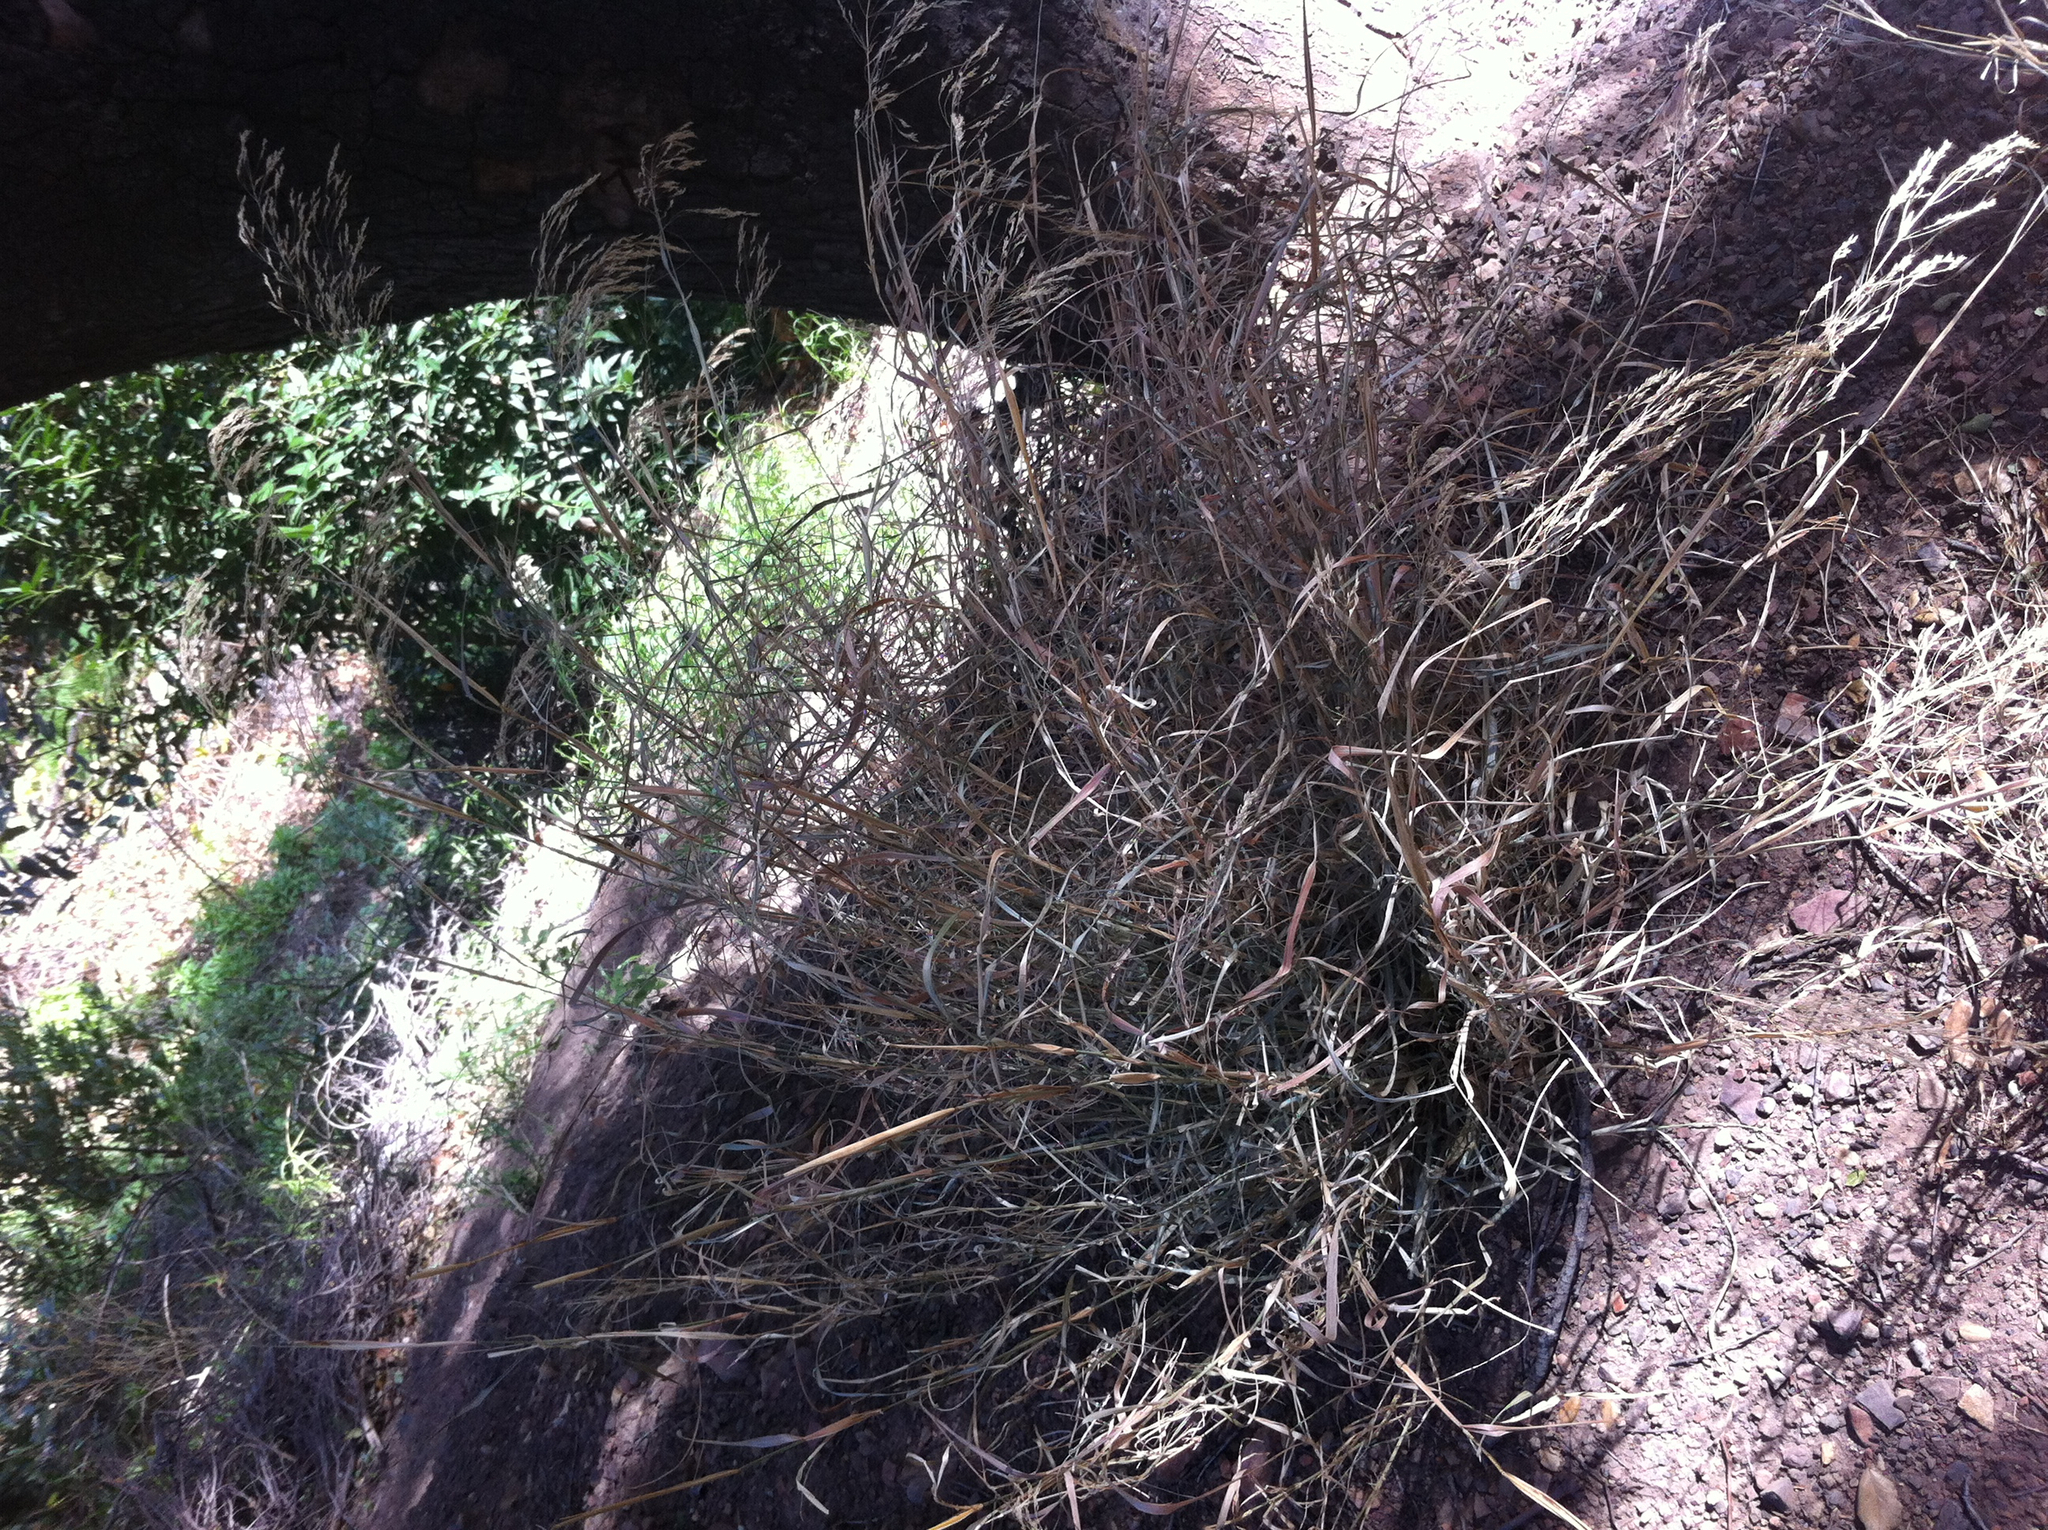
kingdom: Plantae
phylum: Tracheophyta
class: Liliopsida
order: Poales
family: Poaceae
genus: Oloptum
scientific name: Oloptum miliaceum
